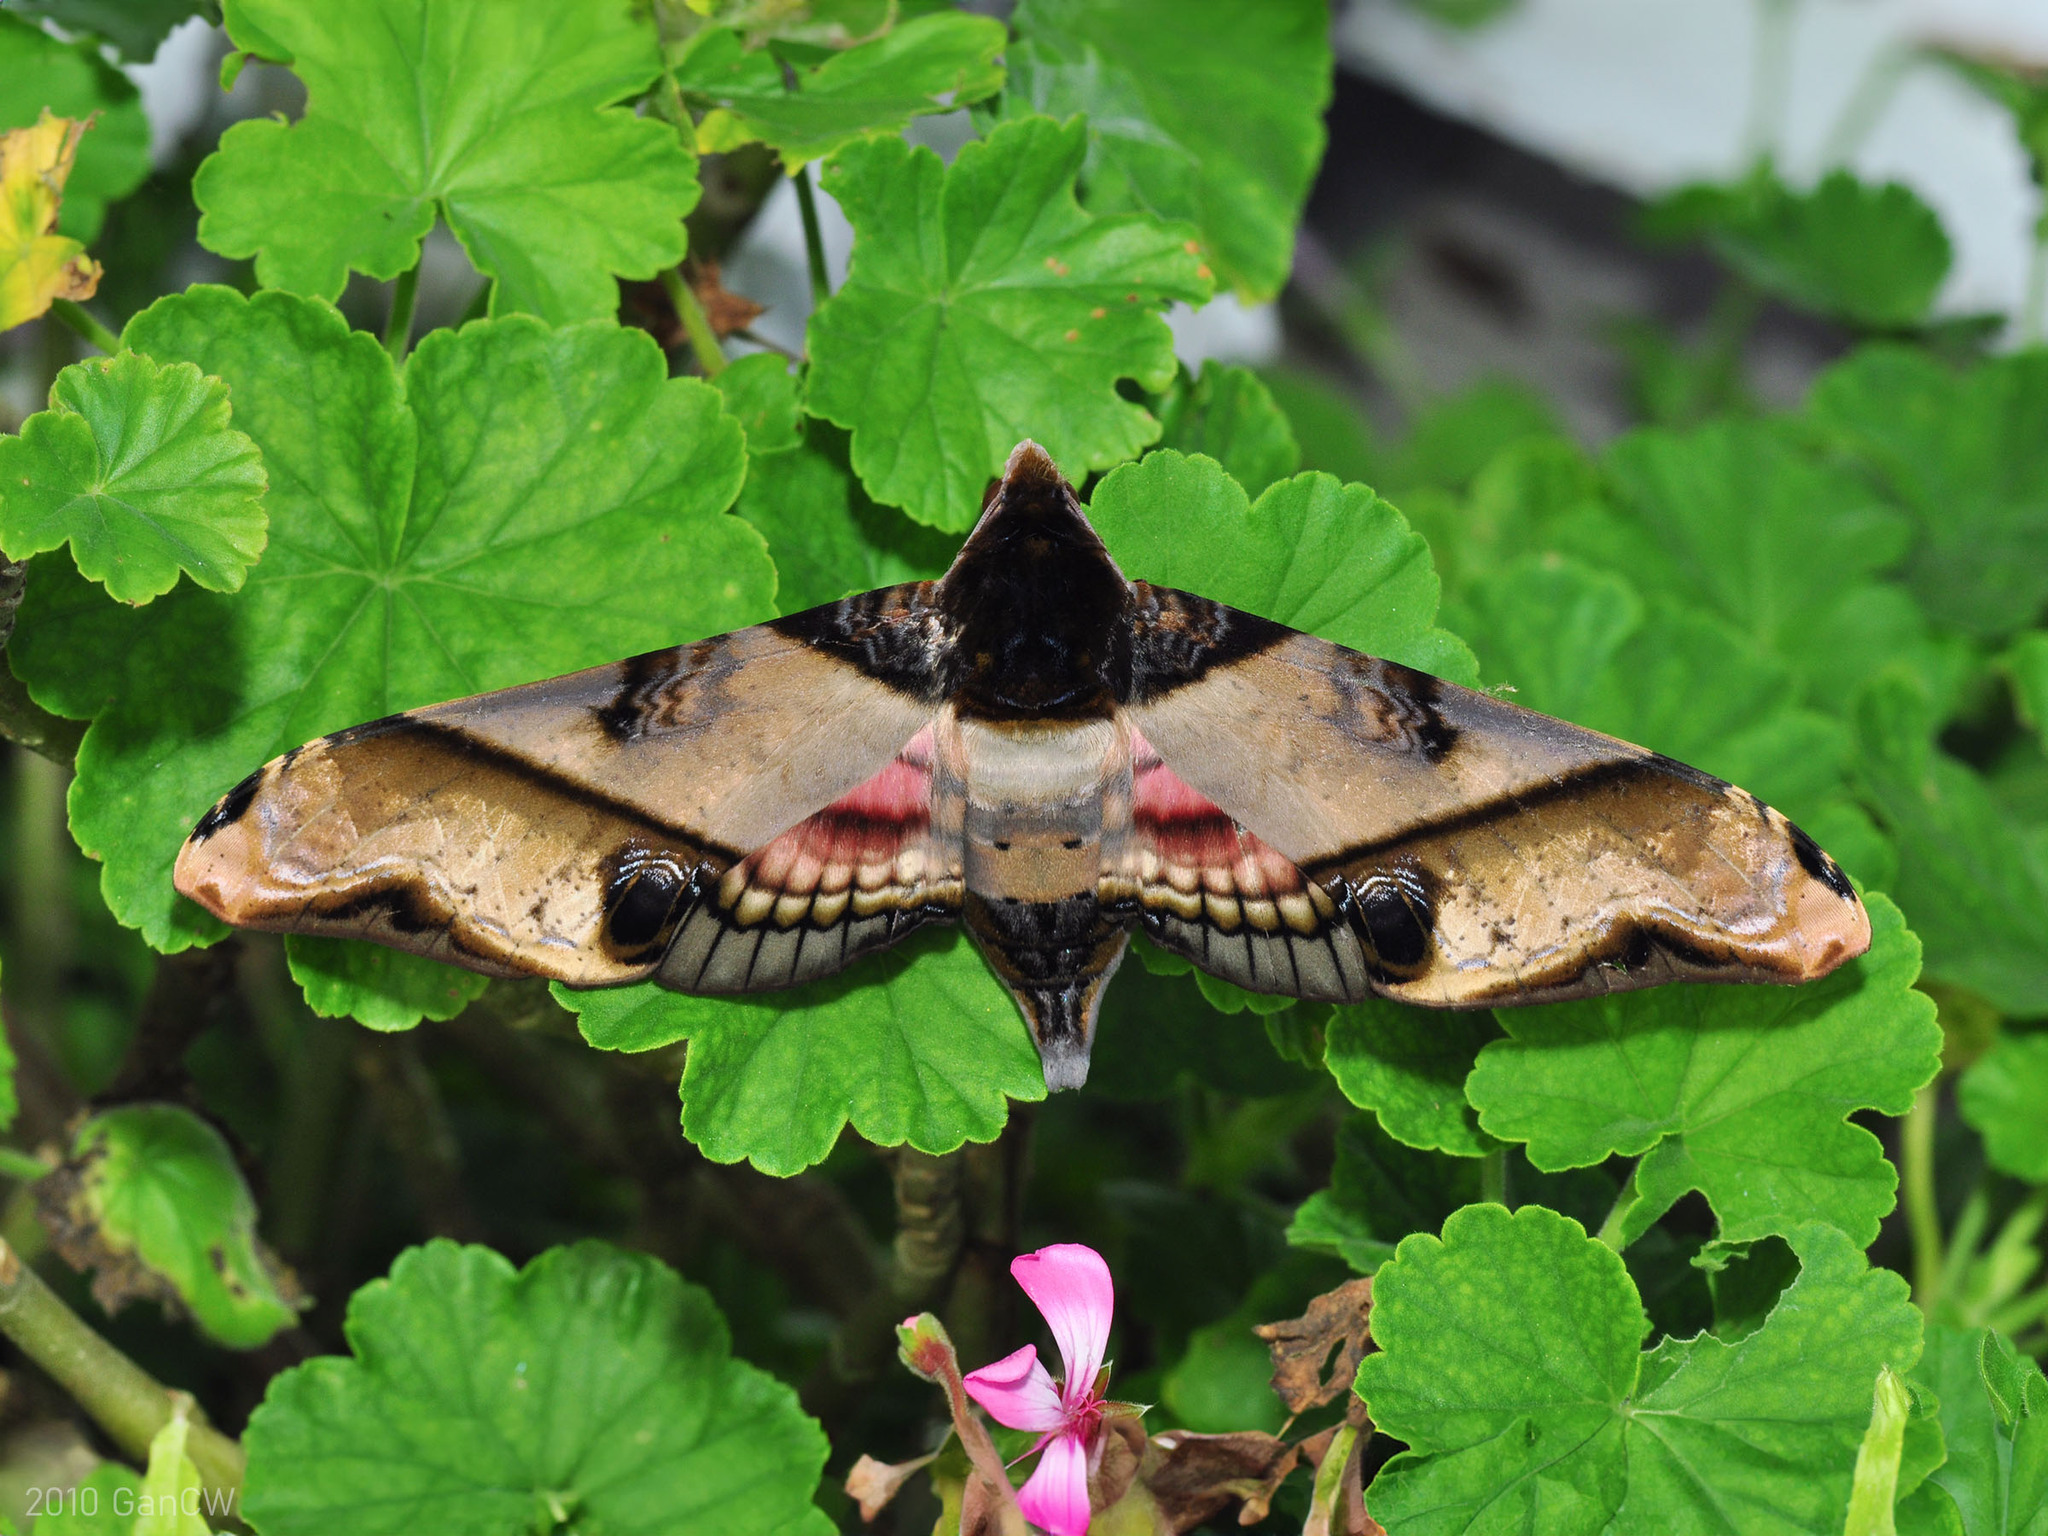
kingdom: Animalia
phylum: Arthropoda
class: Insecta
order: Lepidoptera
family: Sphingidae
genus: Amplypterus
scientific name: Amplypterus panopus
